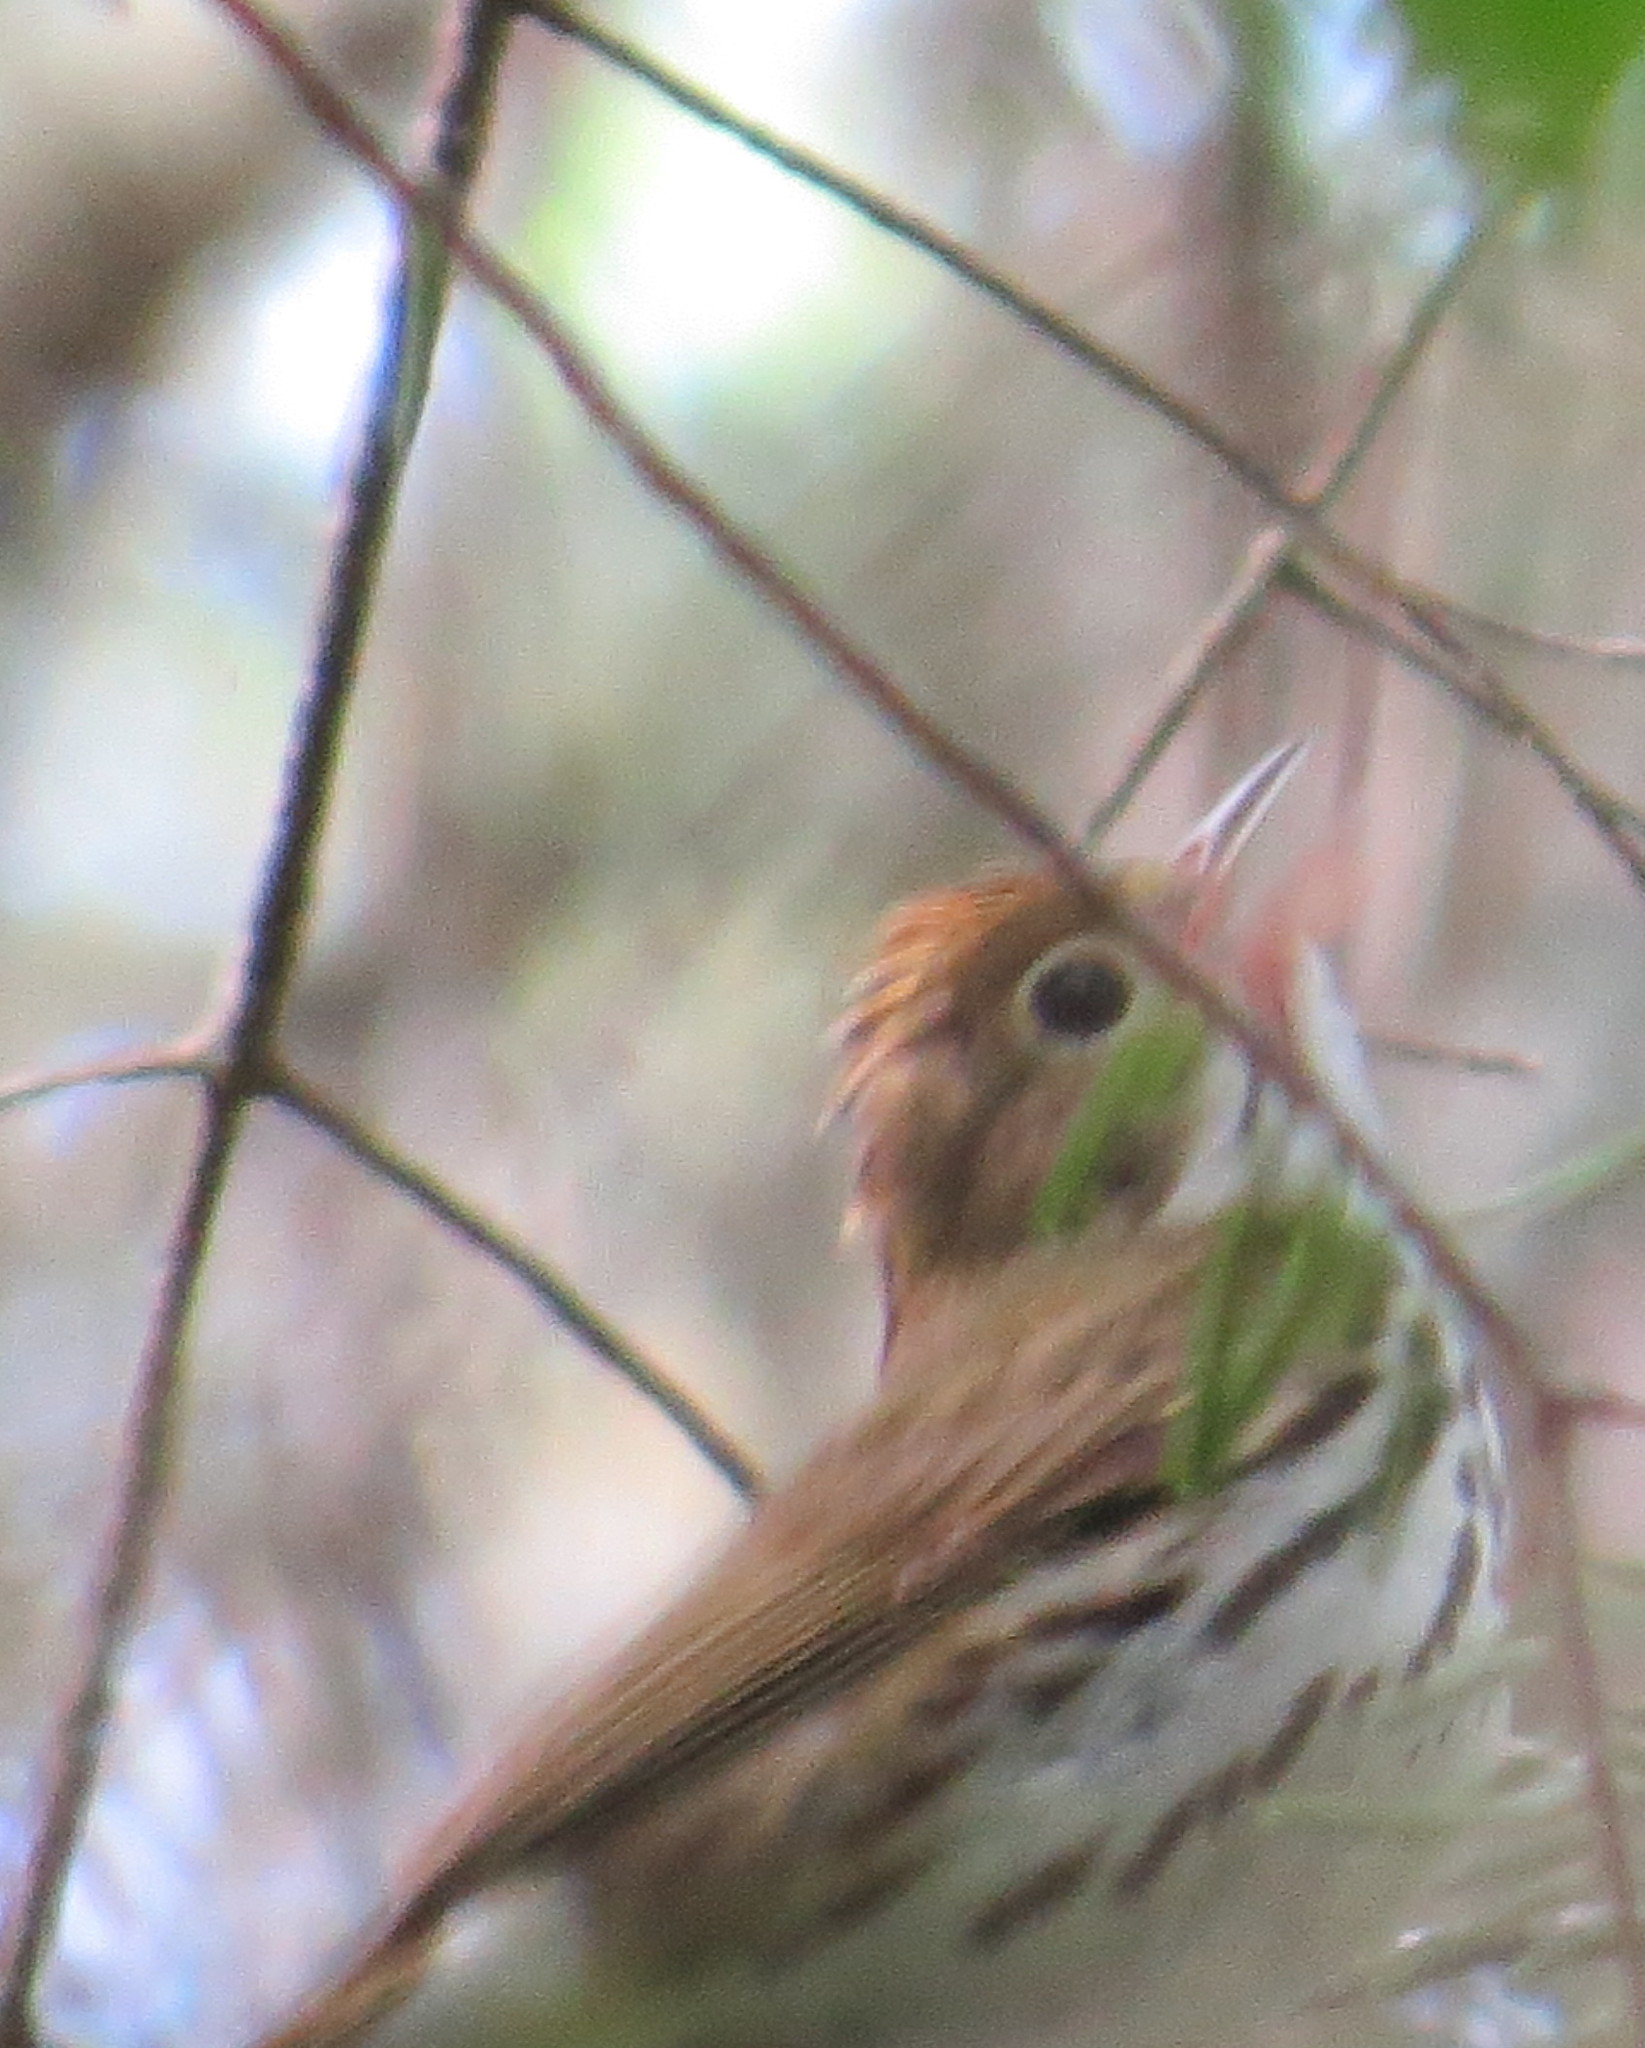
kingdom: Animalia
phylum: Chordata
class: Aves
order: Passeriformes
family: Parulidae
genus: Seiurus
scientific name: Seiurus aurocapilla
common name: Ovenbird
